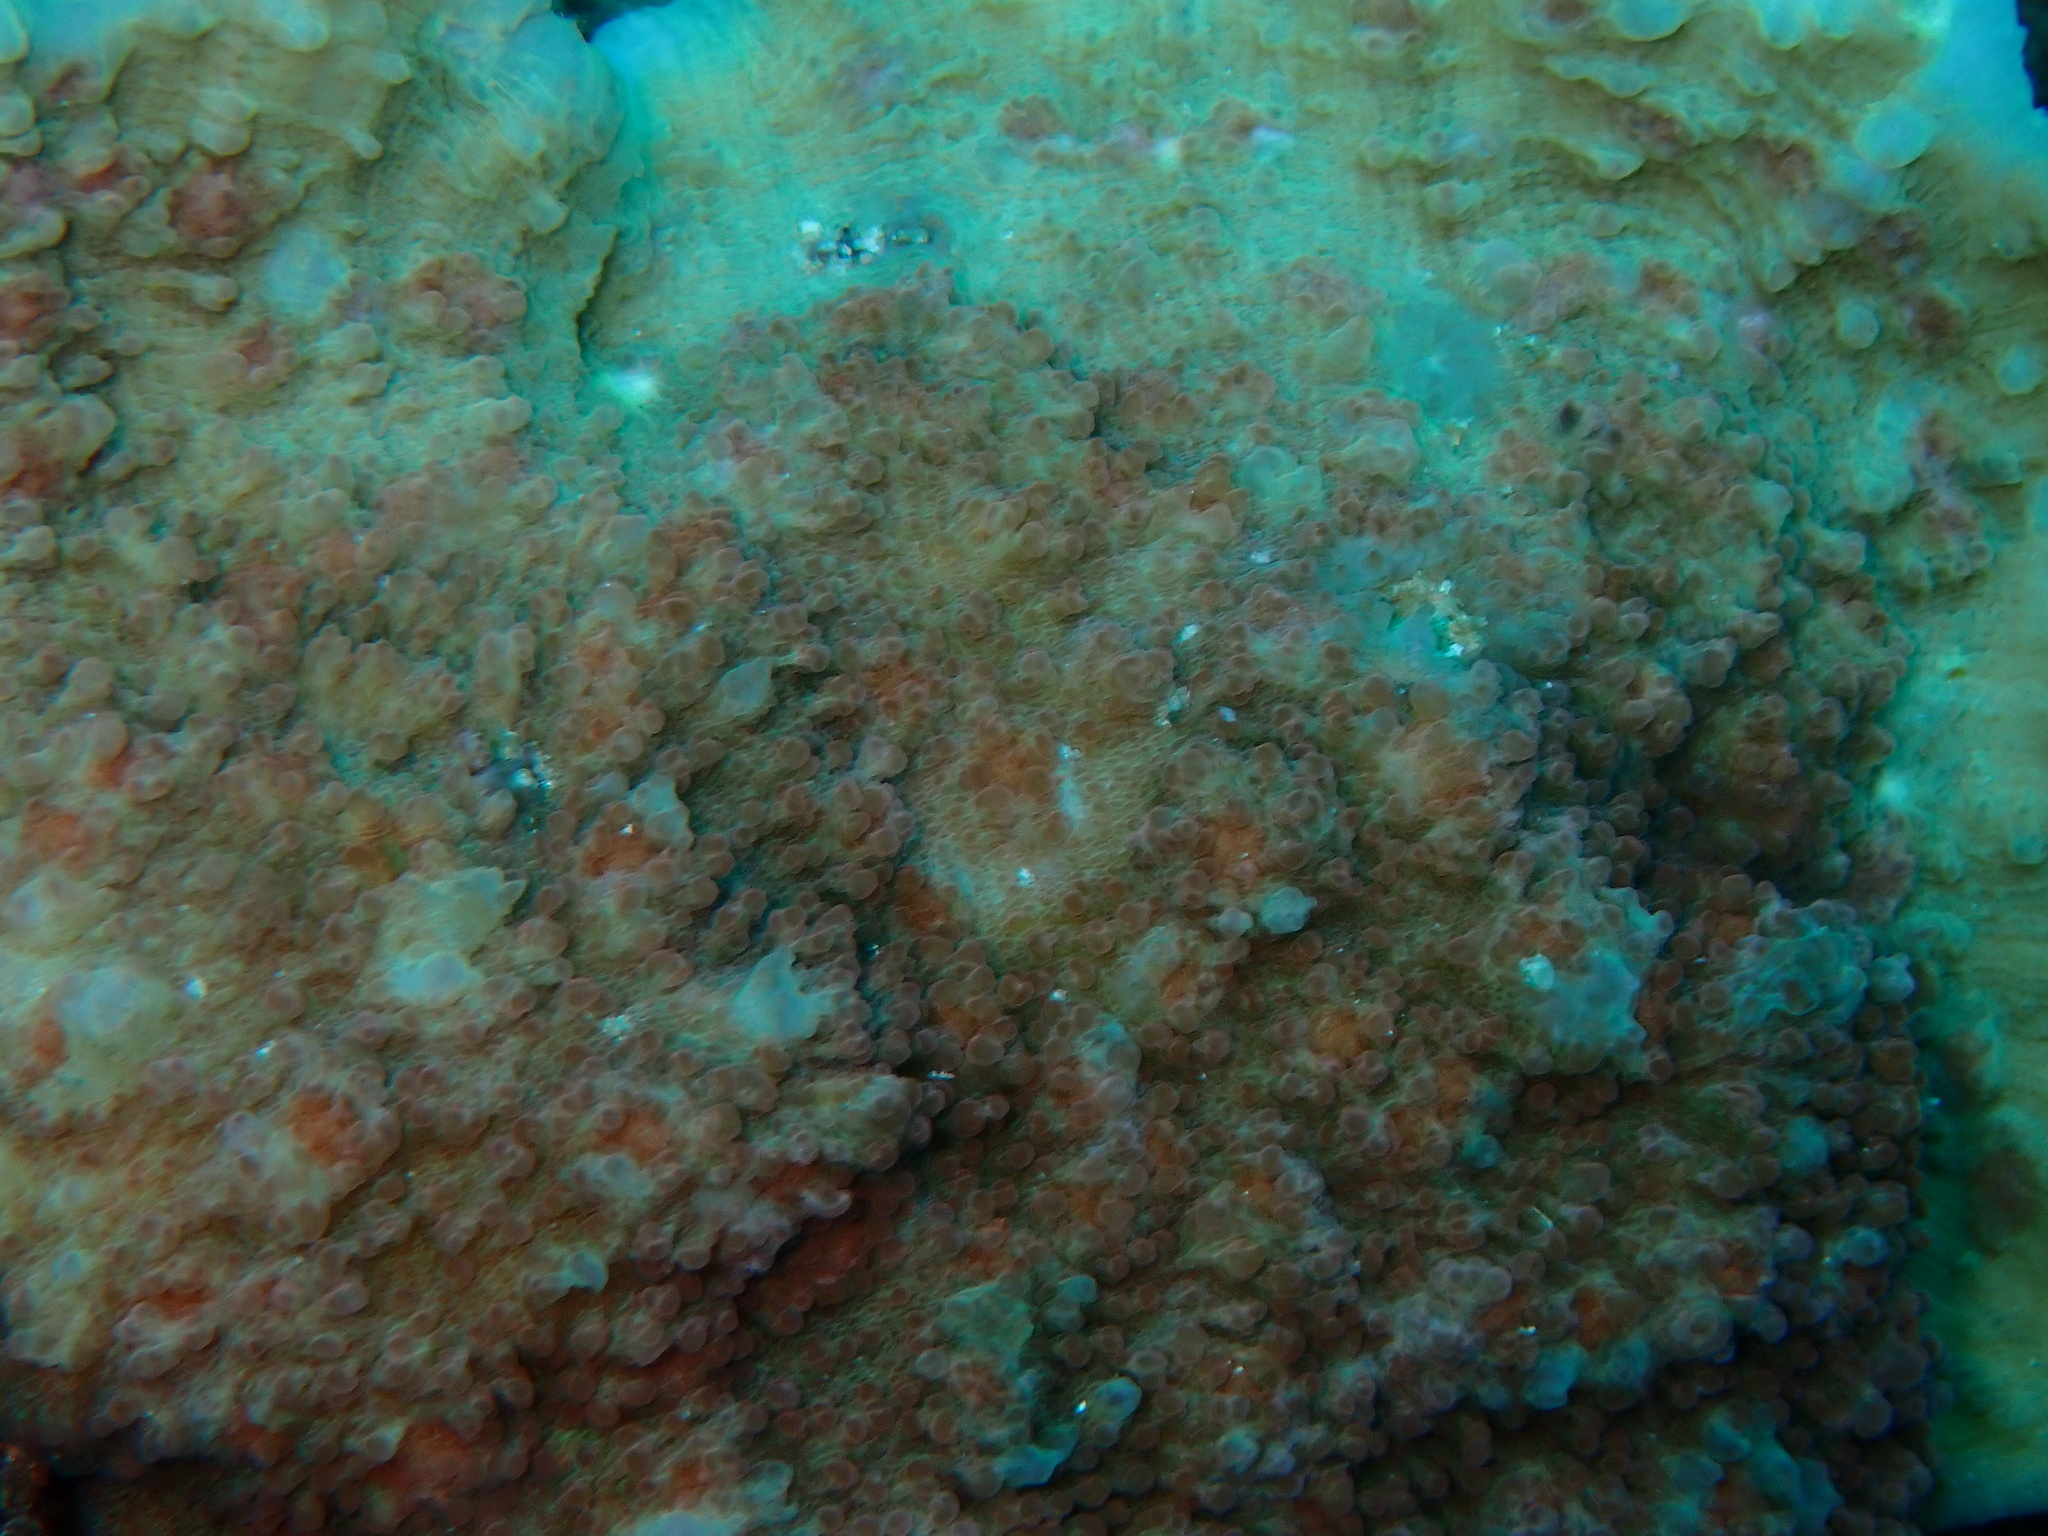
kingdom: Animalia
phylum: Cnidaria
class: Anthozoa
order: Scleractinia
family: Lobophylliidae
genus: Oxypora
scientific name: Oxypora lacera
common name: Porous lettuce coral
